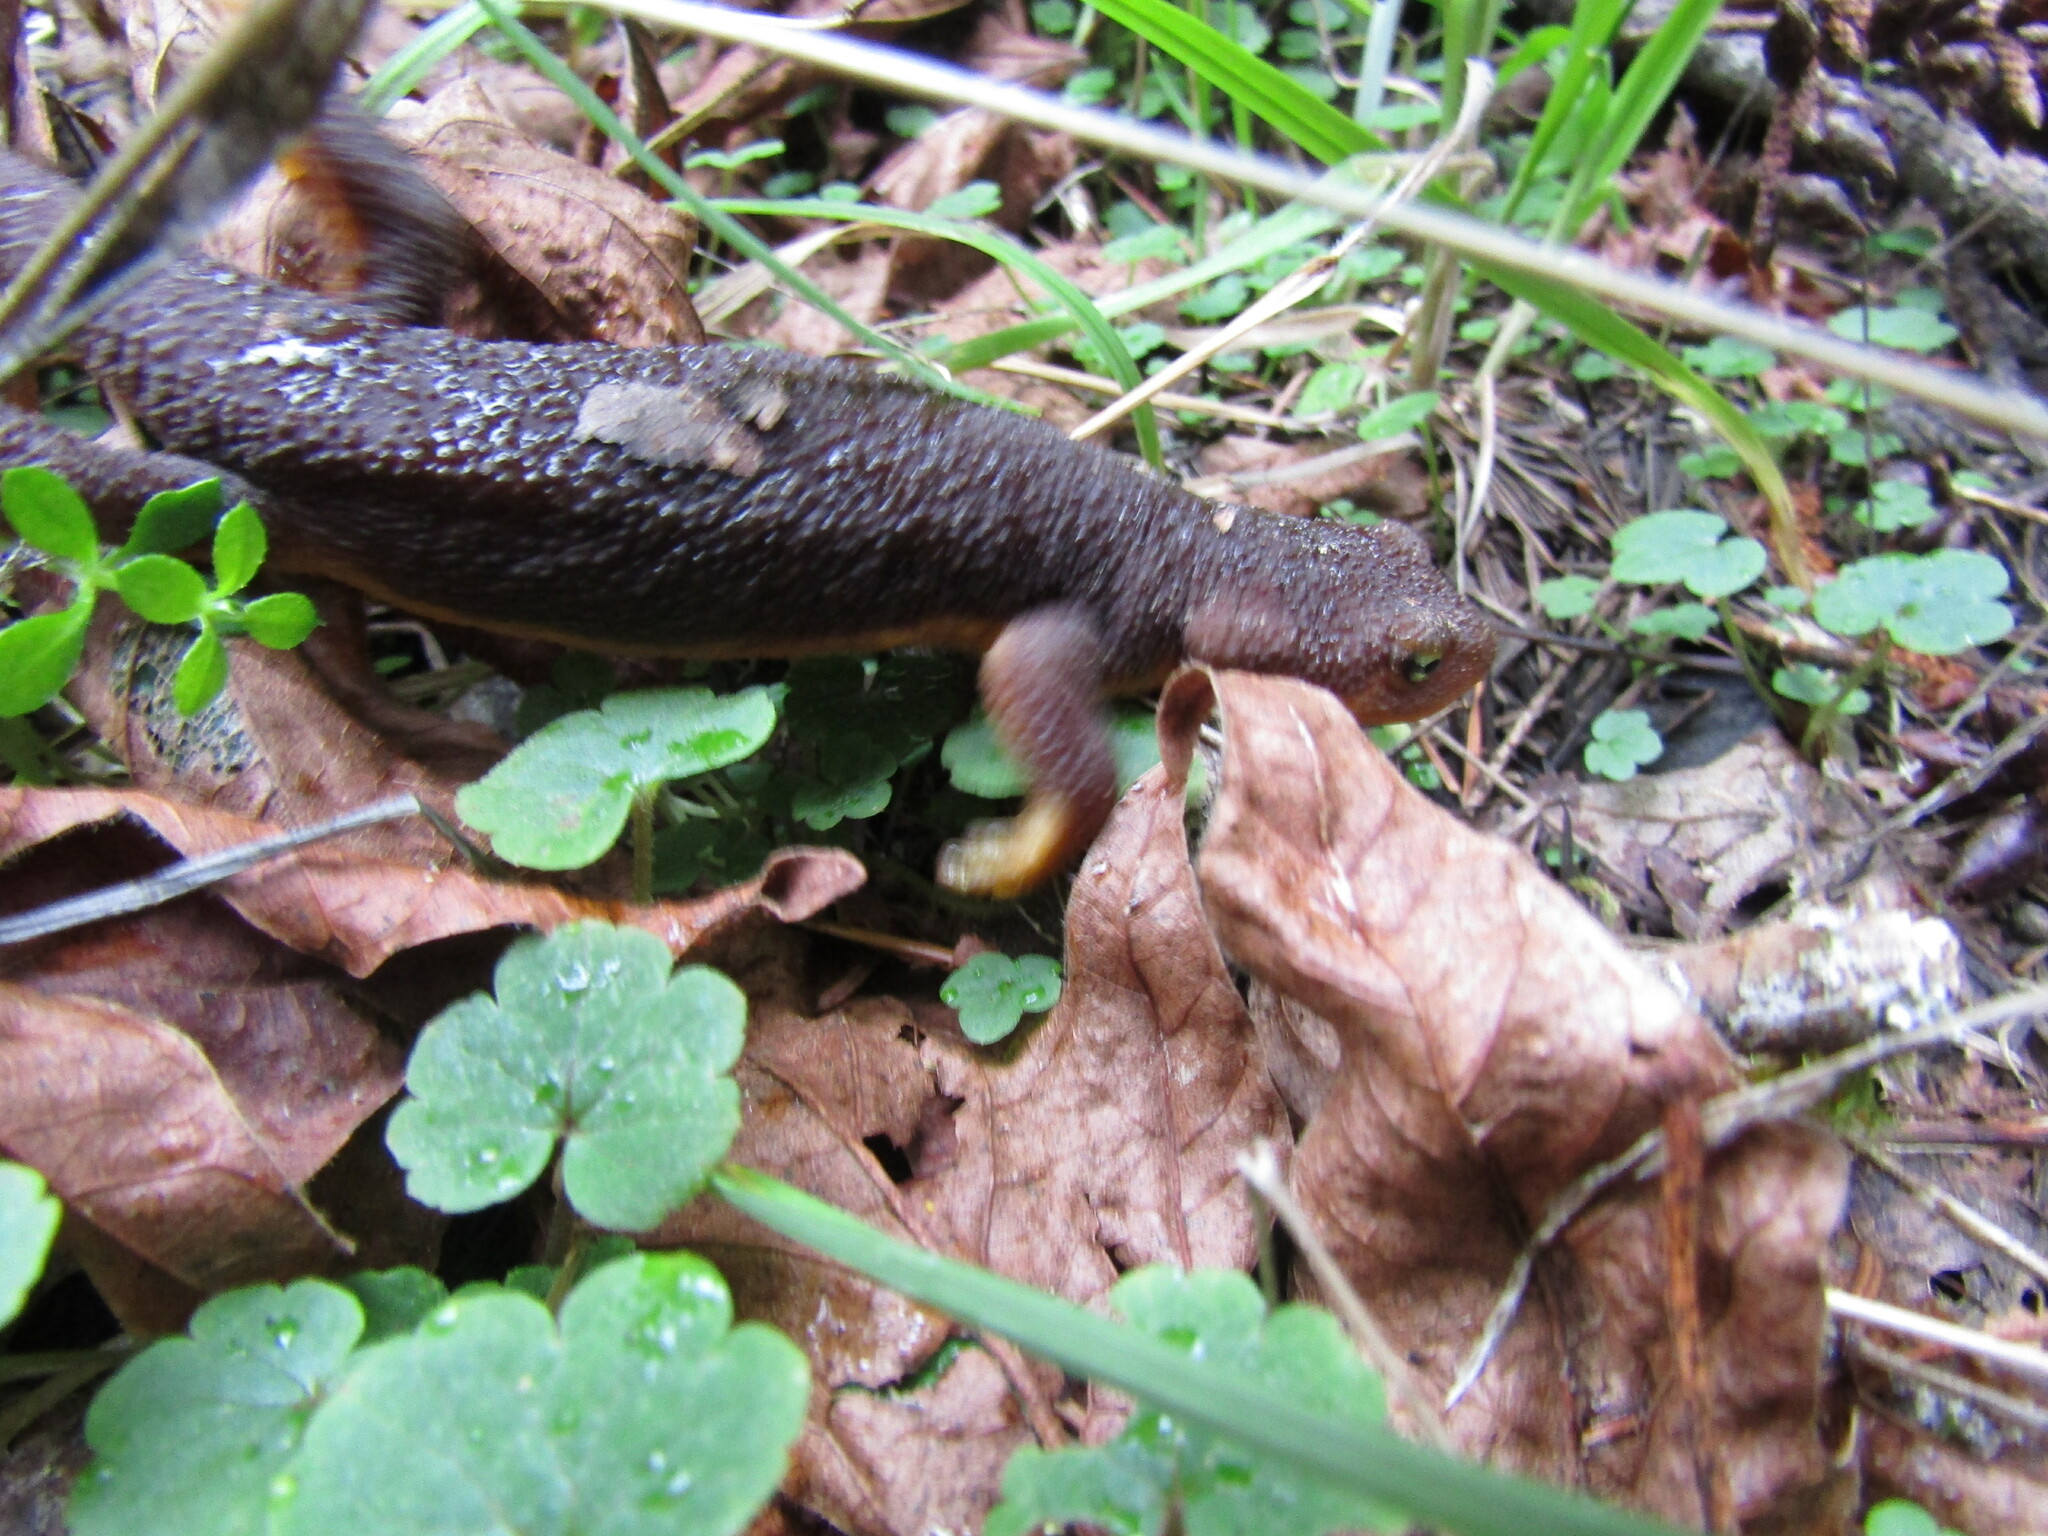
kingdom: Animalia
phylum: Chordata
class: Amphibia
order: Caudata
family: Salamandridae
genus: Taricha
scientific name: Taricha torosa
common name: California newt
